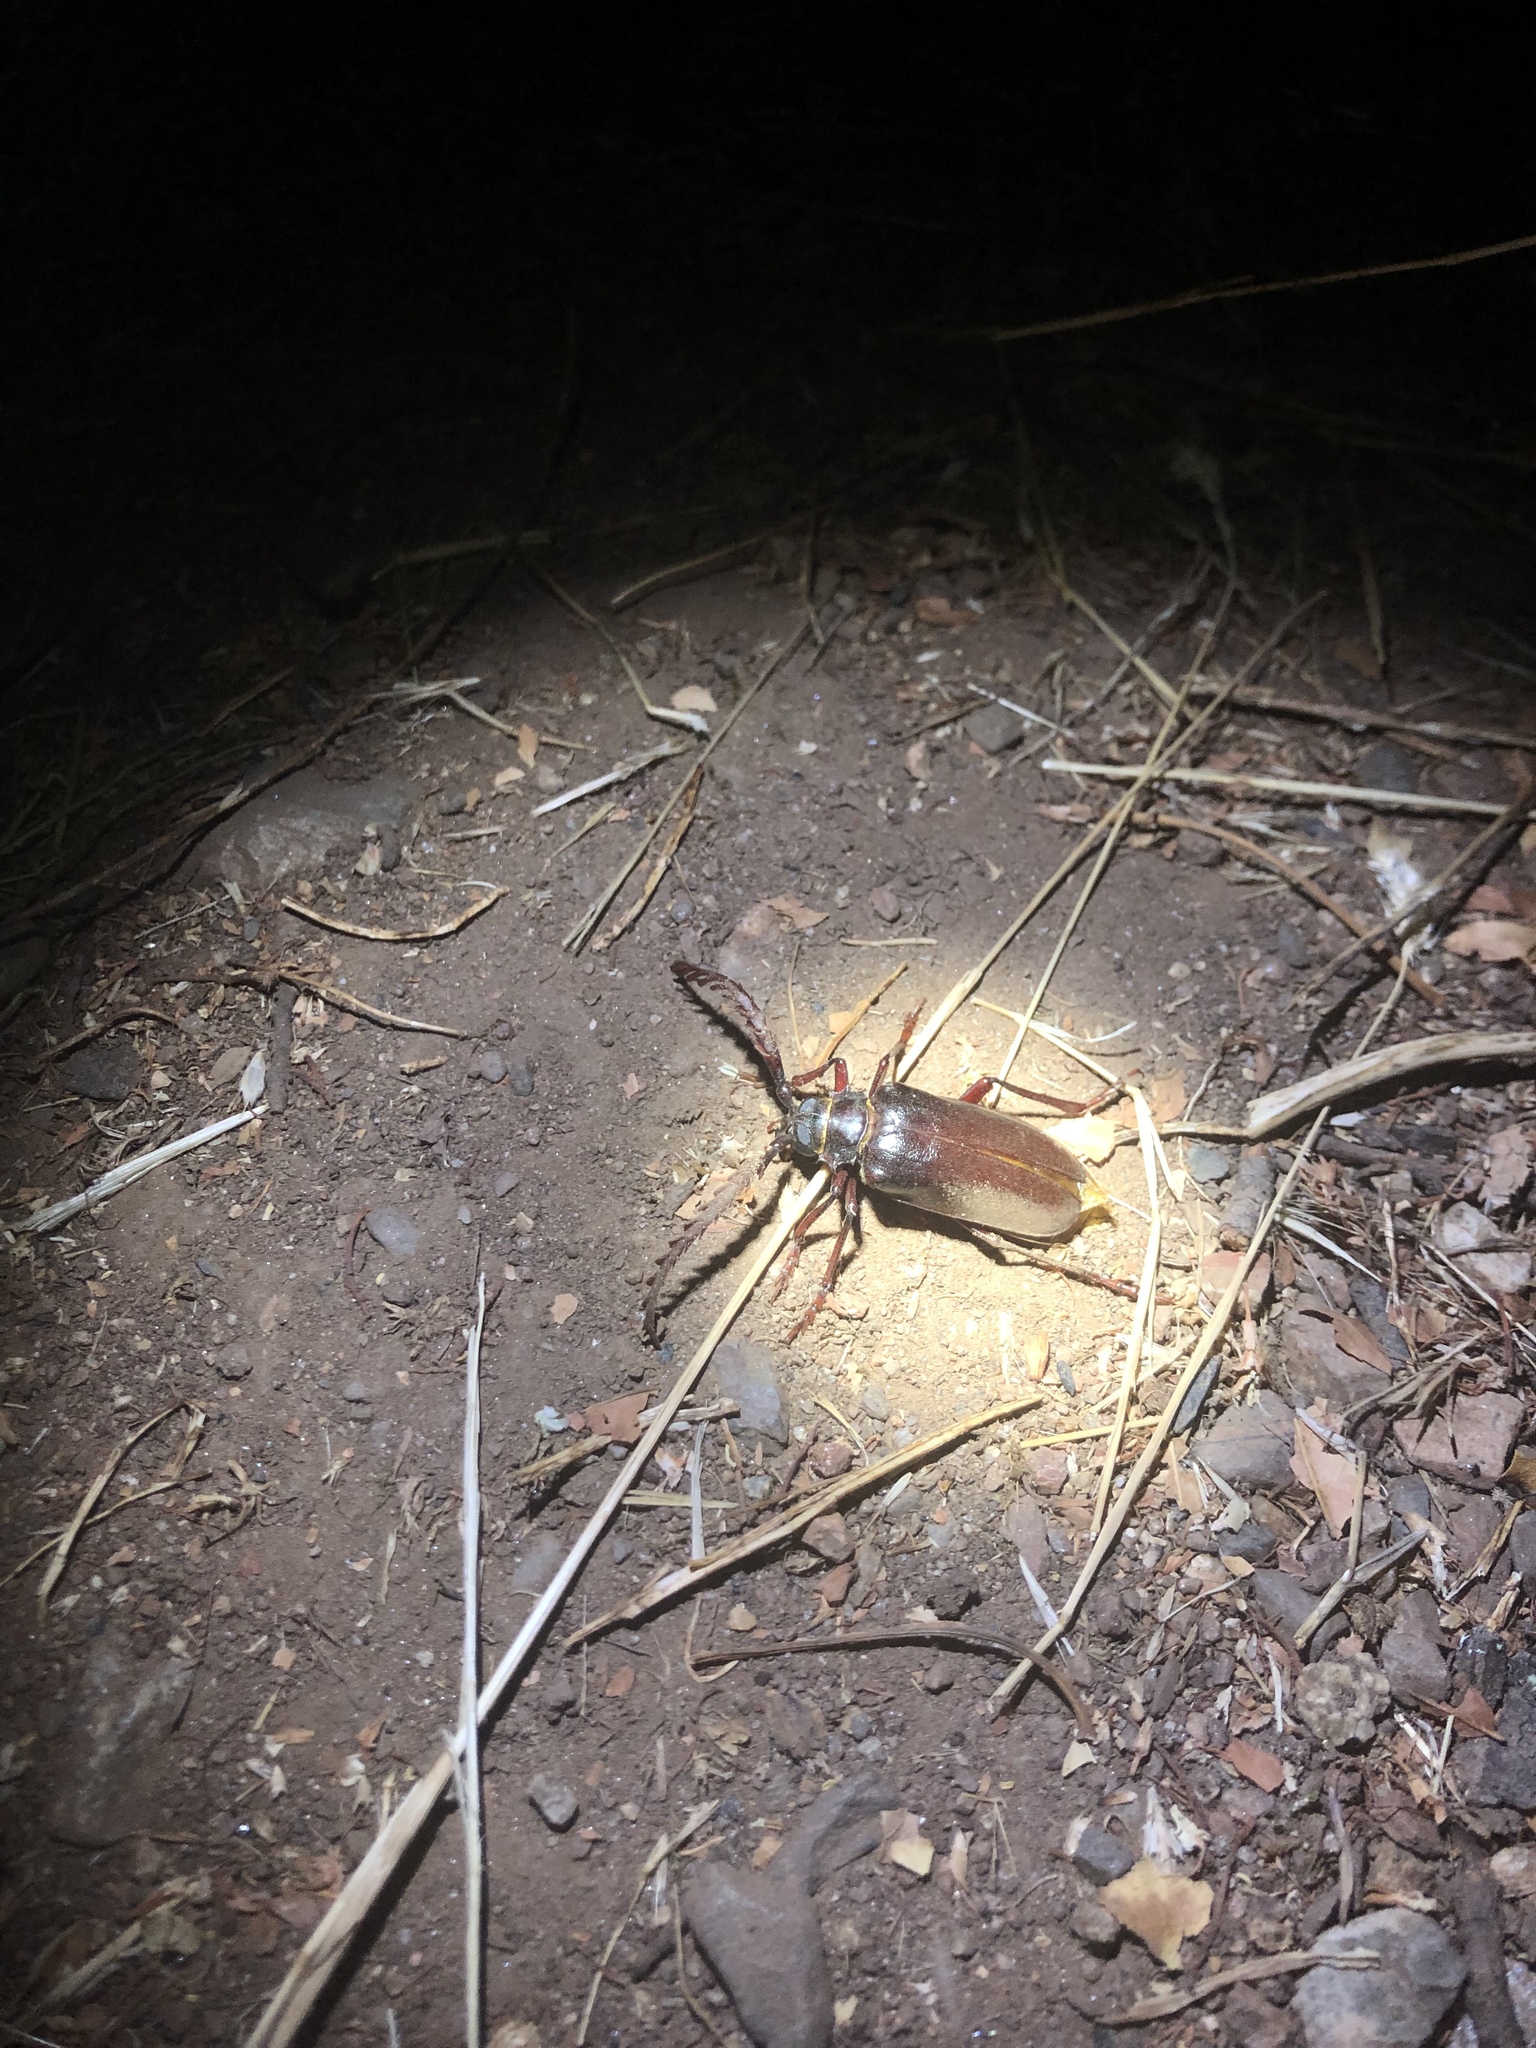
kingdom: Animalia
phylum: Arthropoda
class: Insecta
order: Coleoptera
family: Cerambycidae
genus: Prionus
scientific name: Prionus californicus
